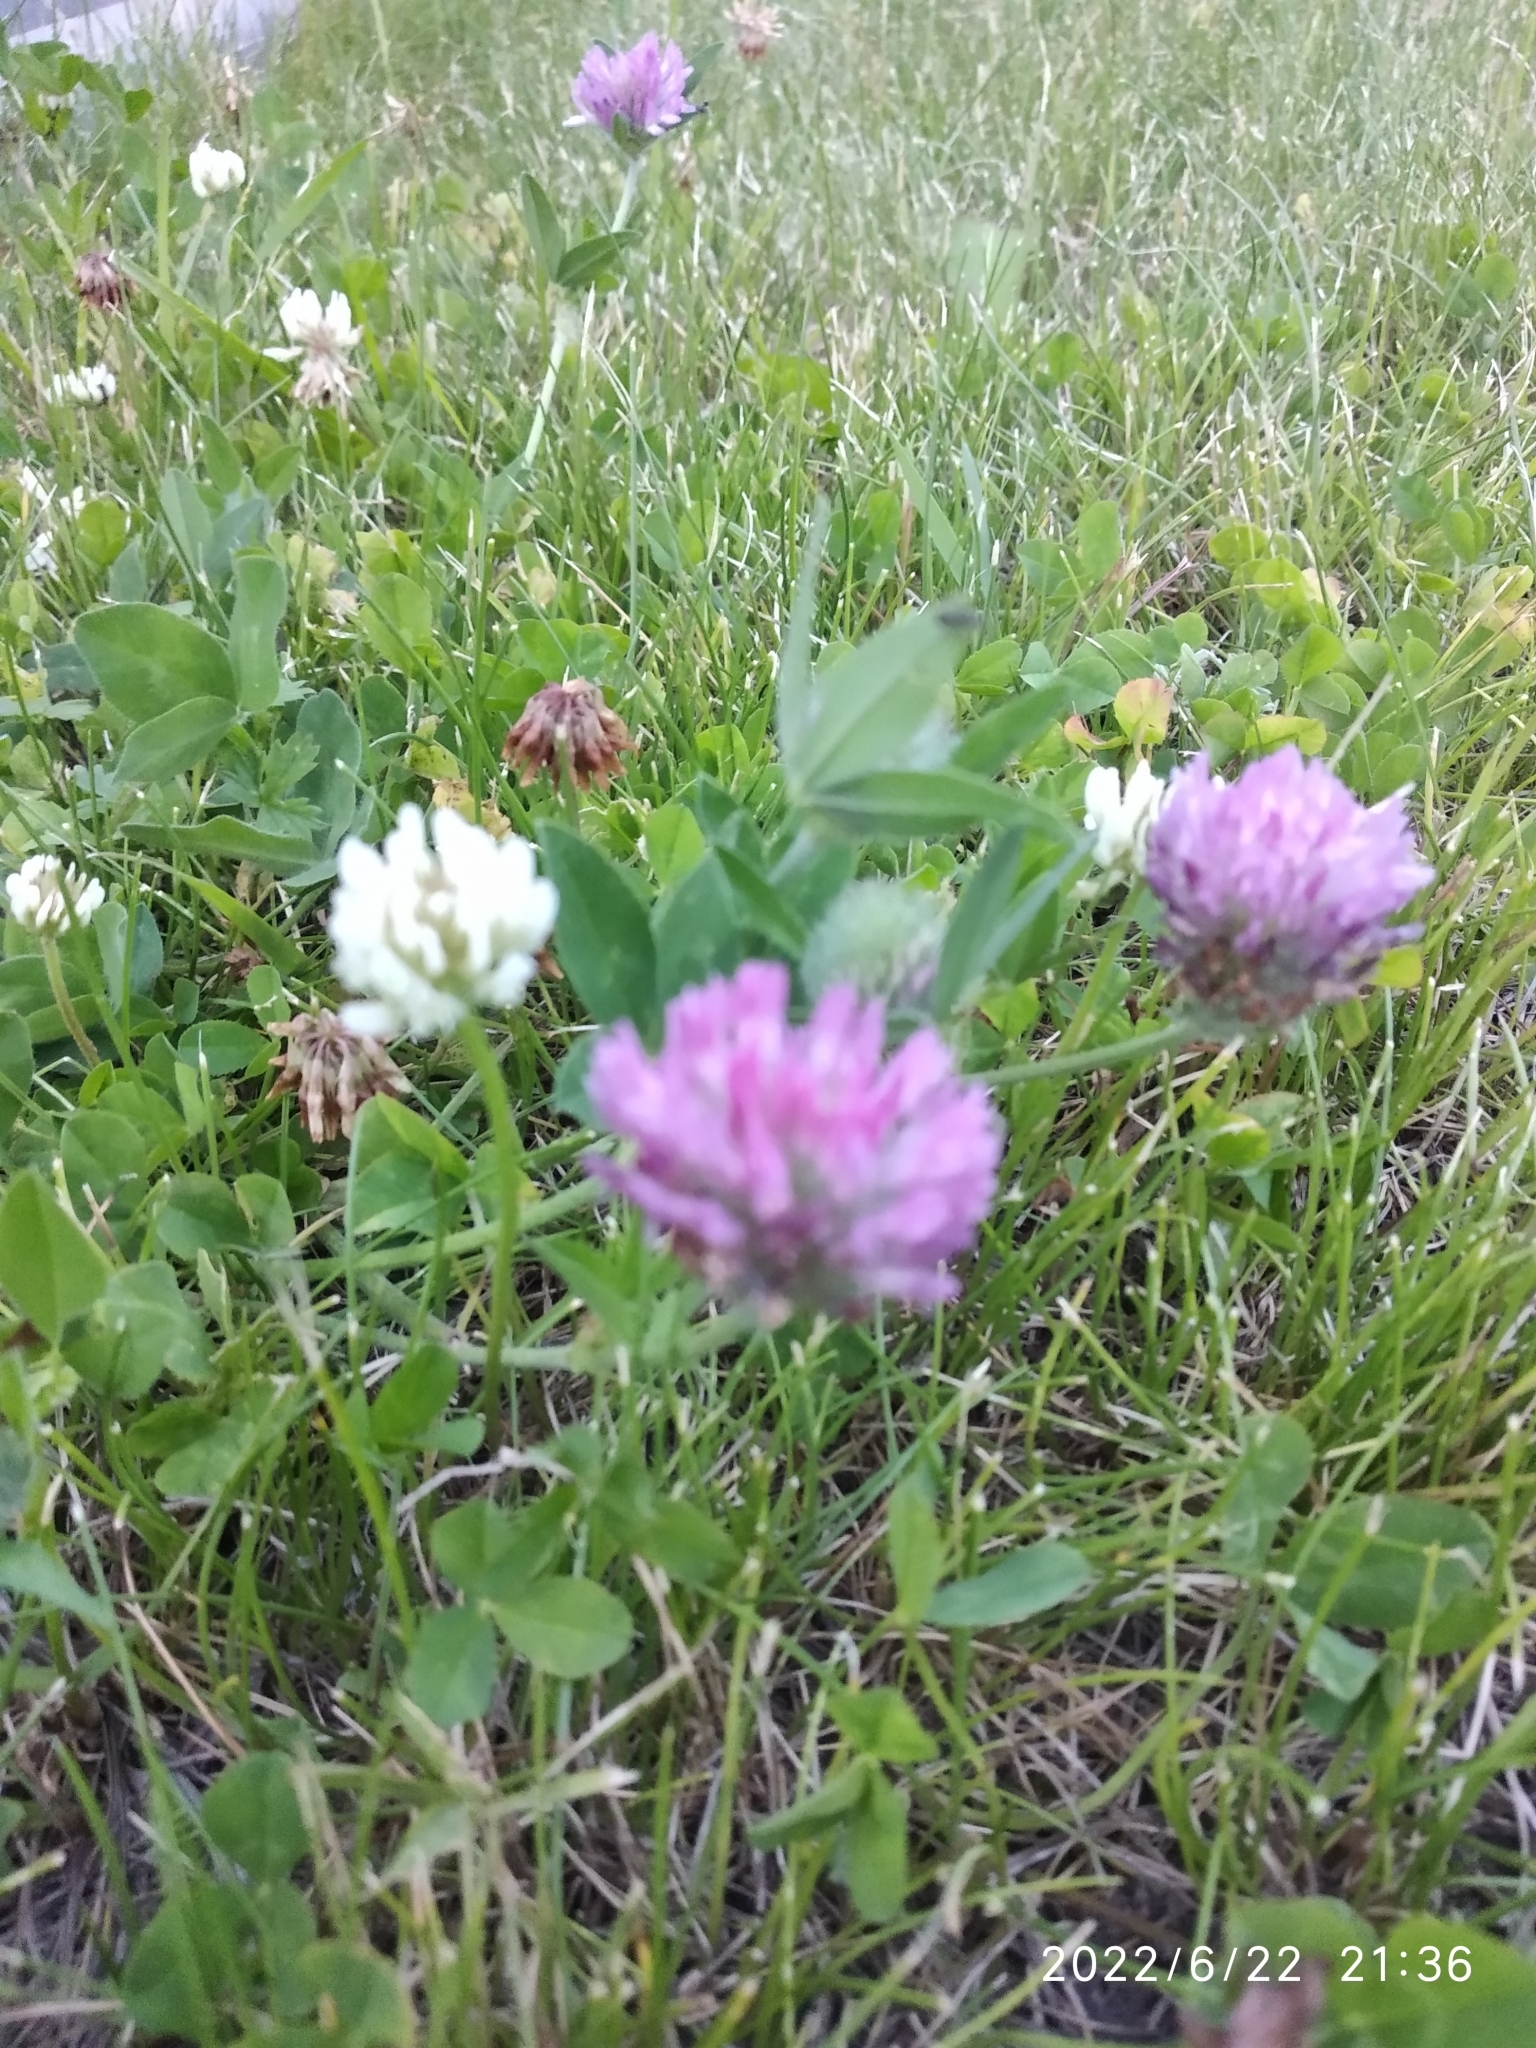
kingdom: Plantae
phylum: Tracheophyta
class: Magnoliopsida
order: Fabales
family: Fabaceae
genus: Trifolium
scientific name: Trifolium pratense
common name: Red clover
